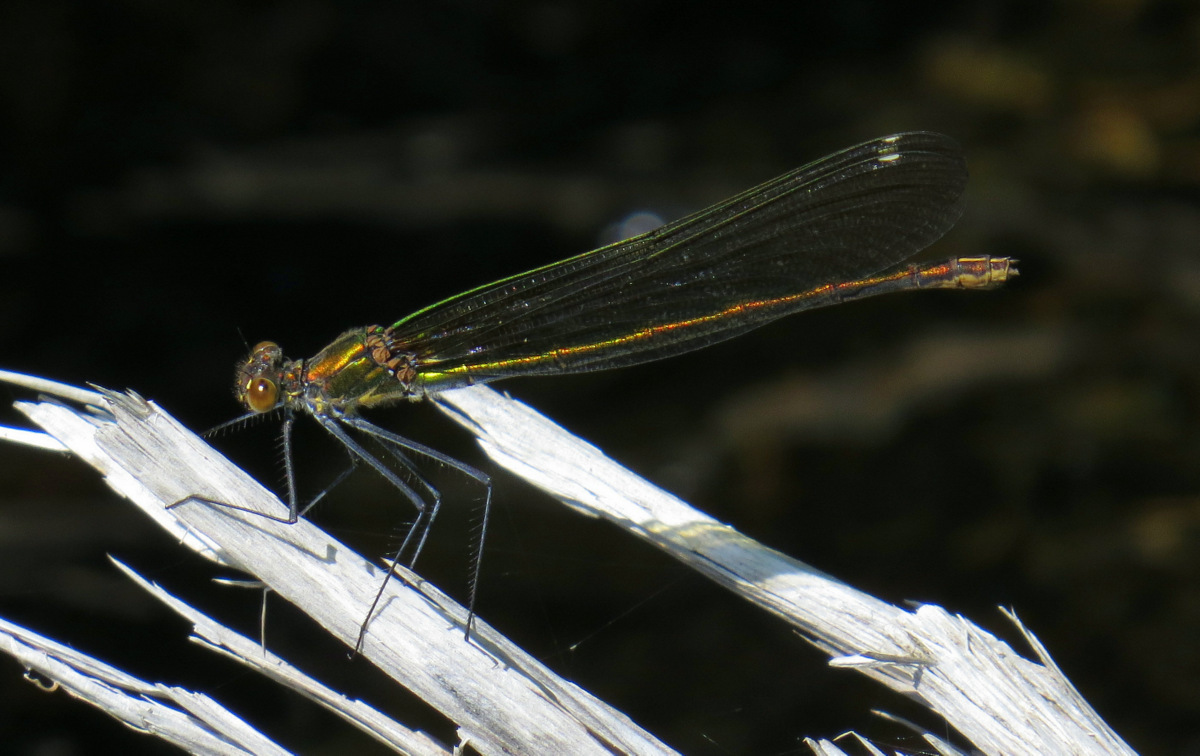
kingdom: Animalia
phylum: Arthropoda
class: Insecta
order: Odonata
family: Calopterygidae
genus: Calopteryx
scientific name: Calopteryx amata
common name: Superb jewelwing
